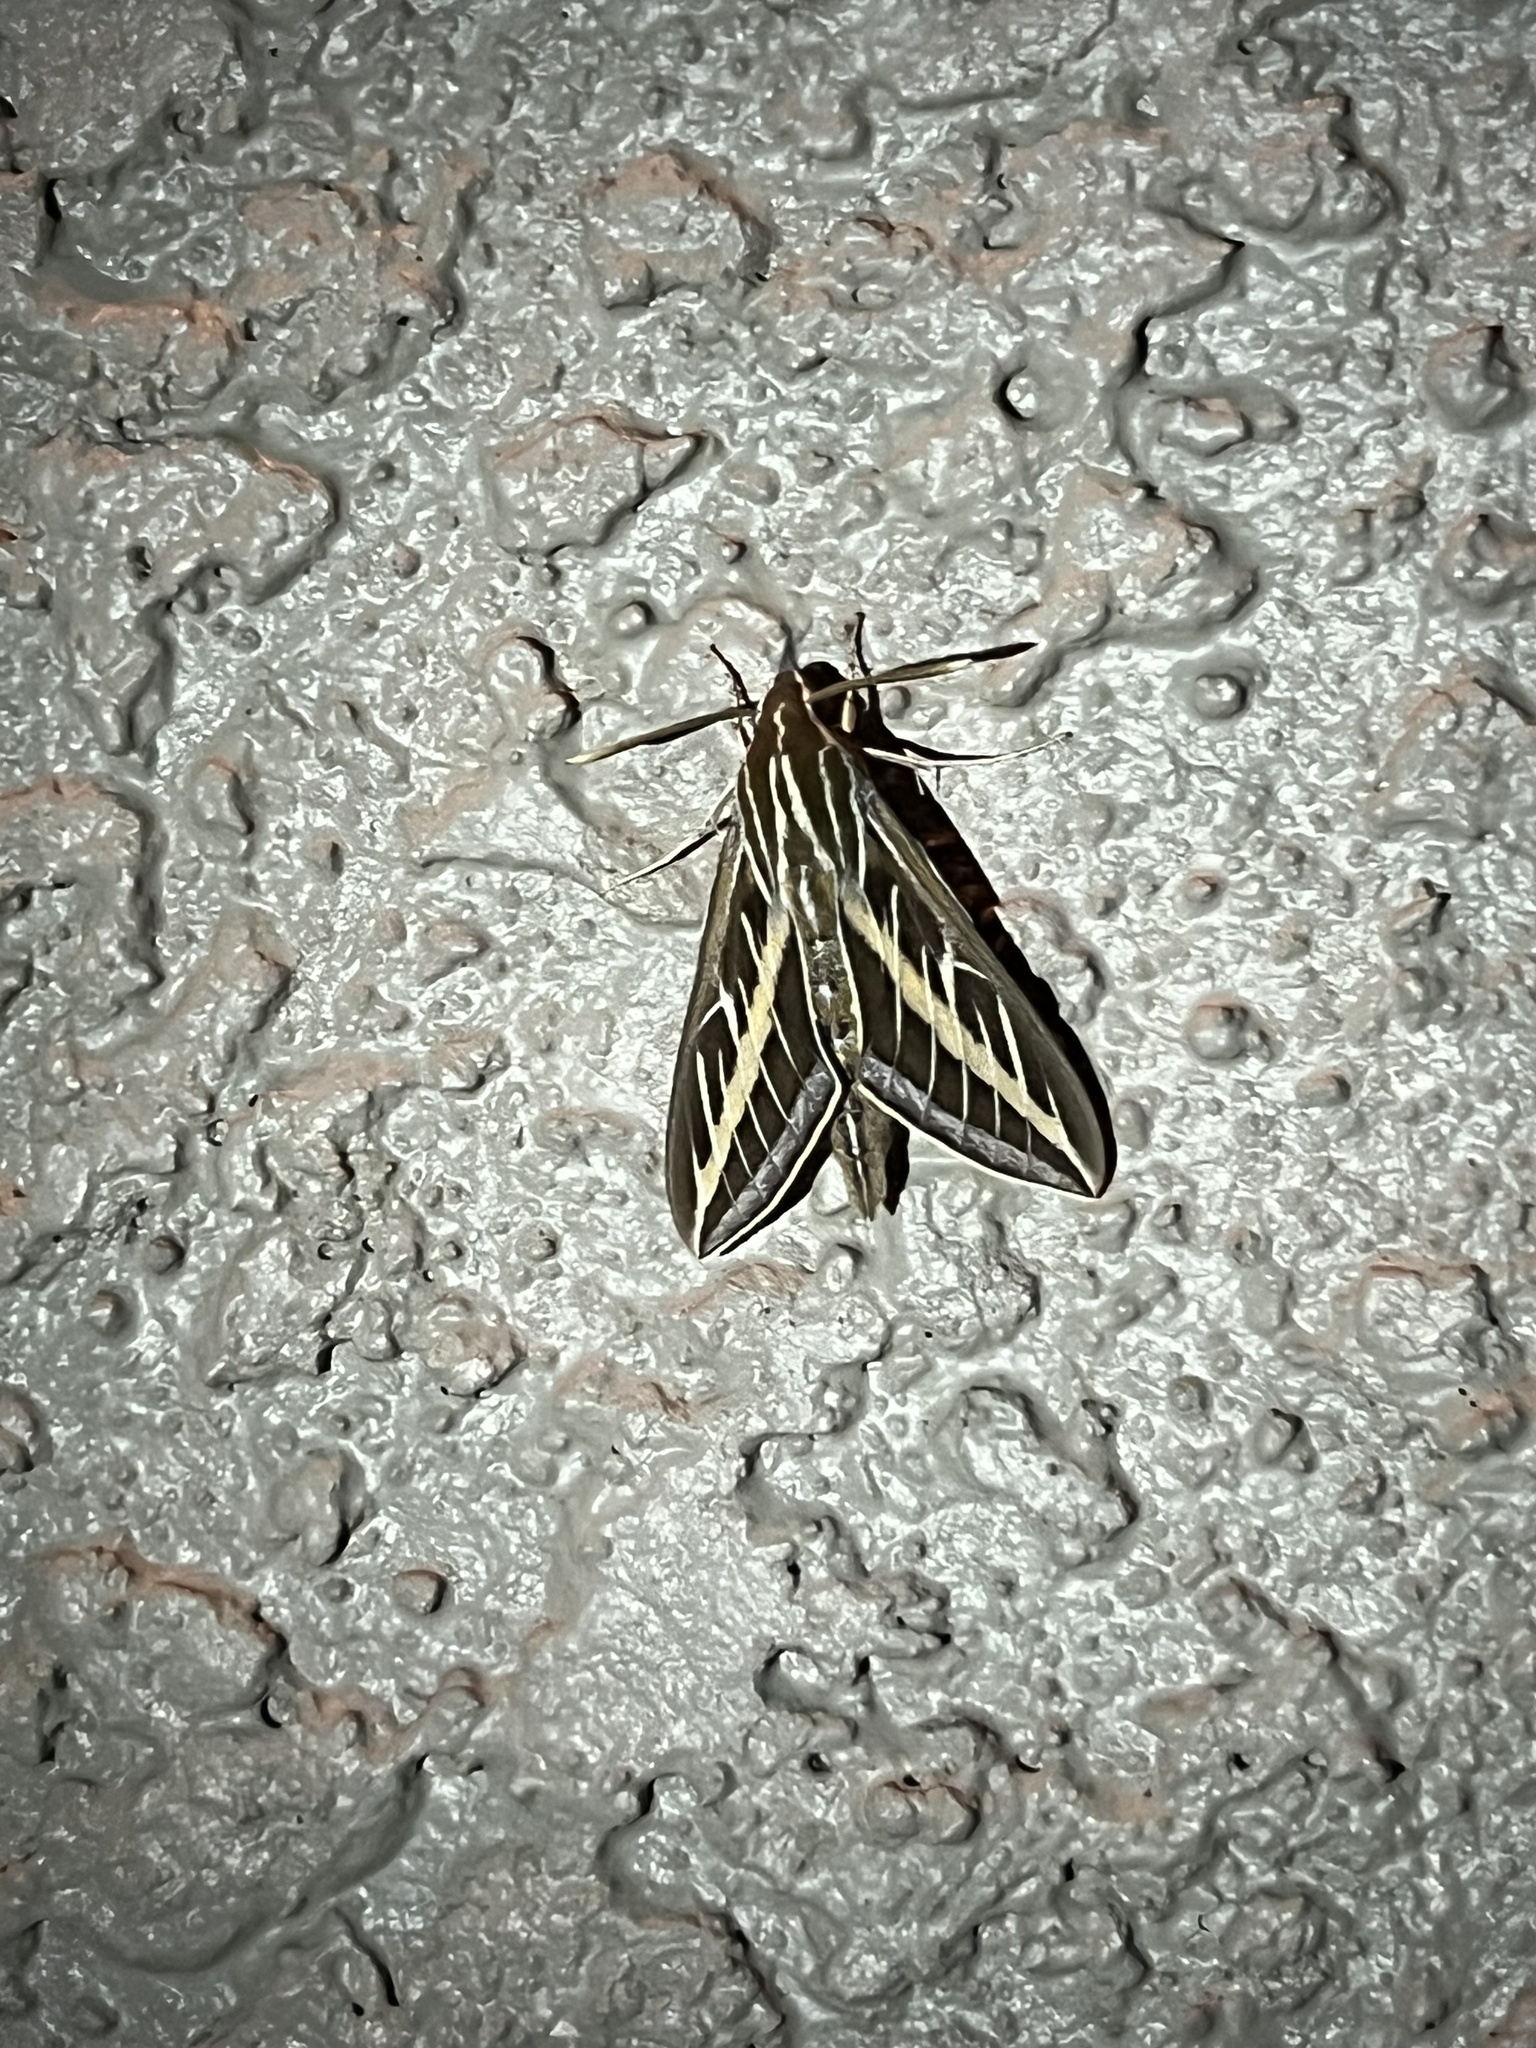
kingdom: Animalia
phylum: Arthropoda
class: Insecta
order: Lepidoptera
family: Sphingidae
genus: Hyles
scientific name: Hyles lineata
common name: White-lined sphinx
